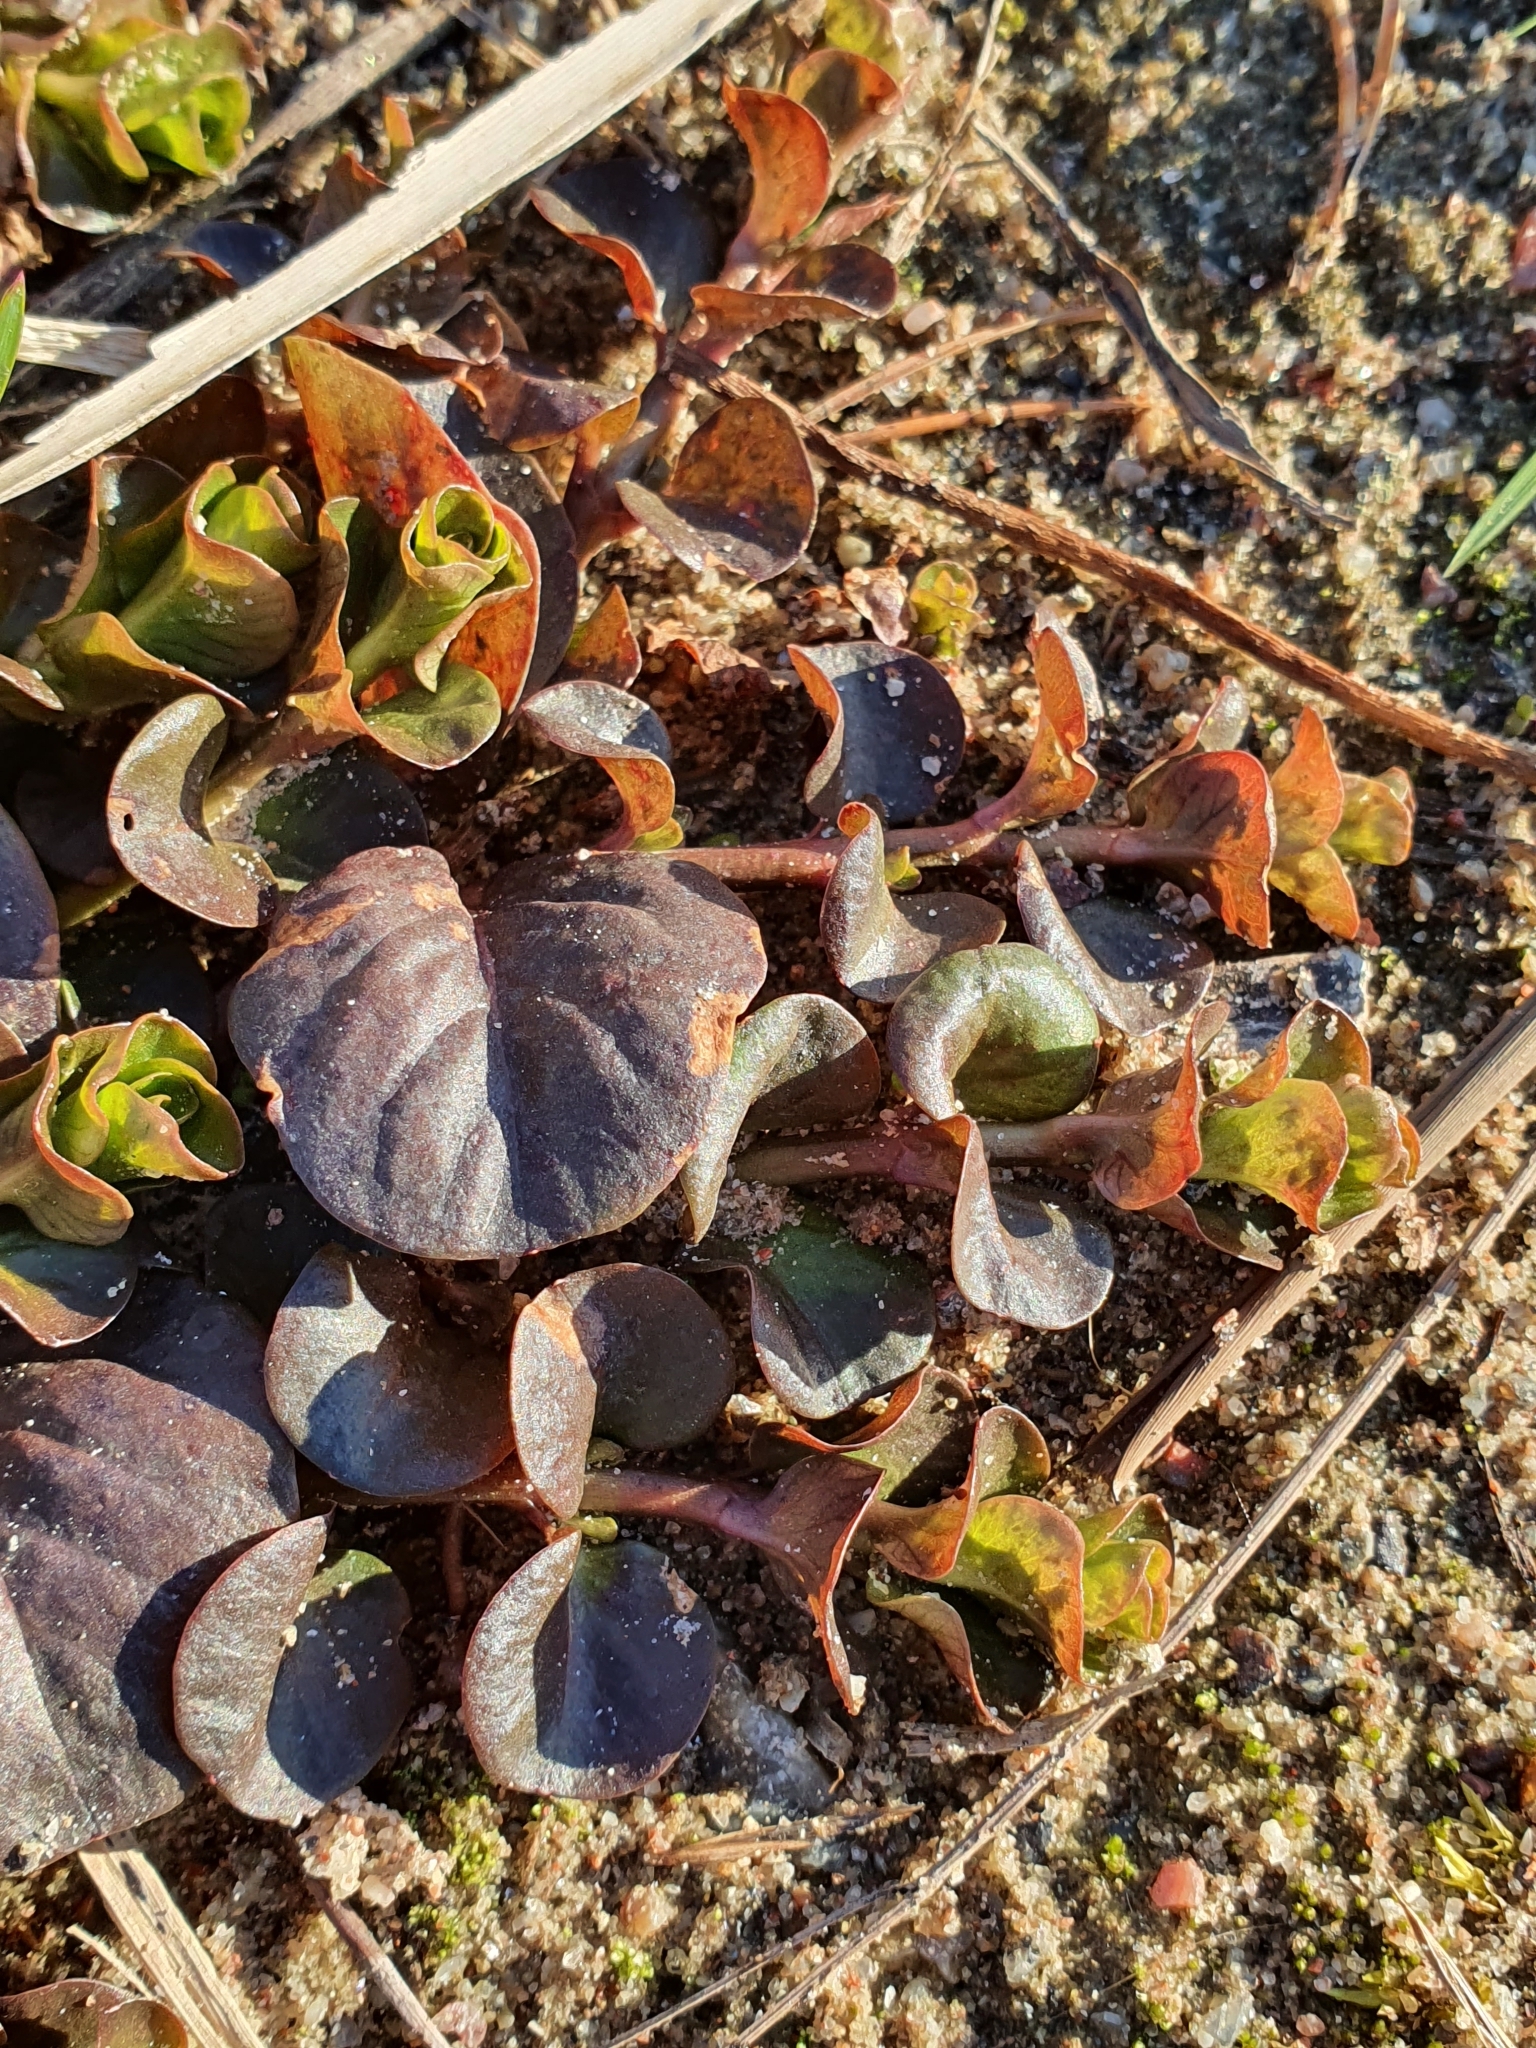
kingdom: Plantae
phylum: Tracheophyta
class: Magnoliopsida
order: Ericales
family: Primulaceae
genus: Lysimachia
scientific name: Lysimachia nummularia
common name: Moneywort
